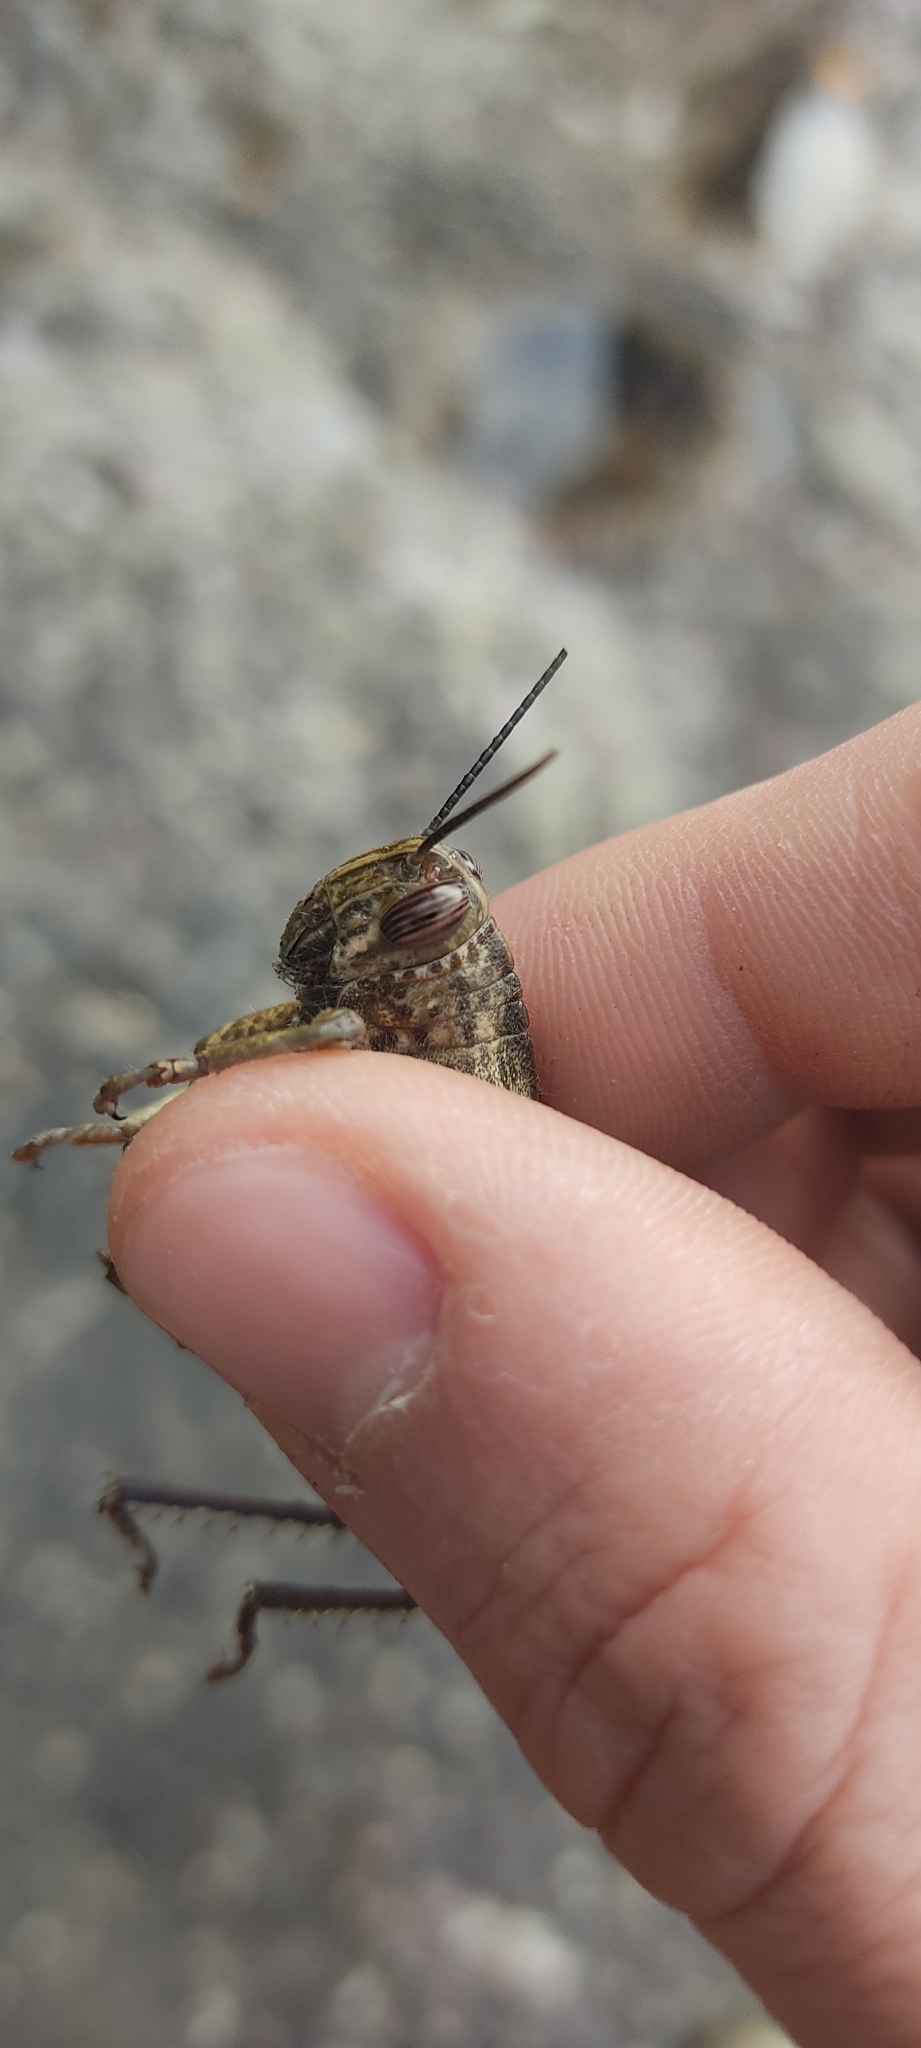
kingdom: Animalia
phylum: Arthropoda
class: Insecta
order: Orthoptera
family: Acrididae
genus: Anacridium
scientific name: Anacridium aegyptium
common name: Egyptian grasshopper
